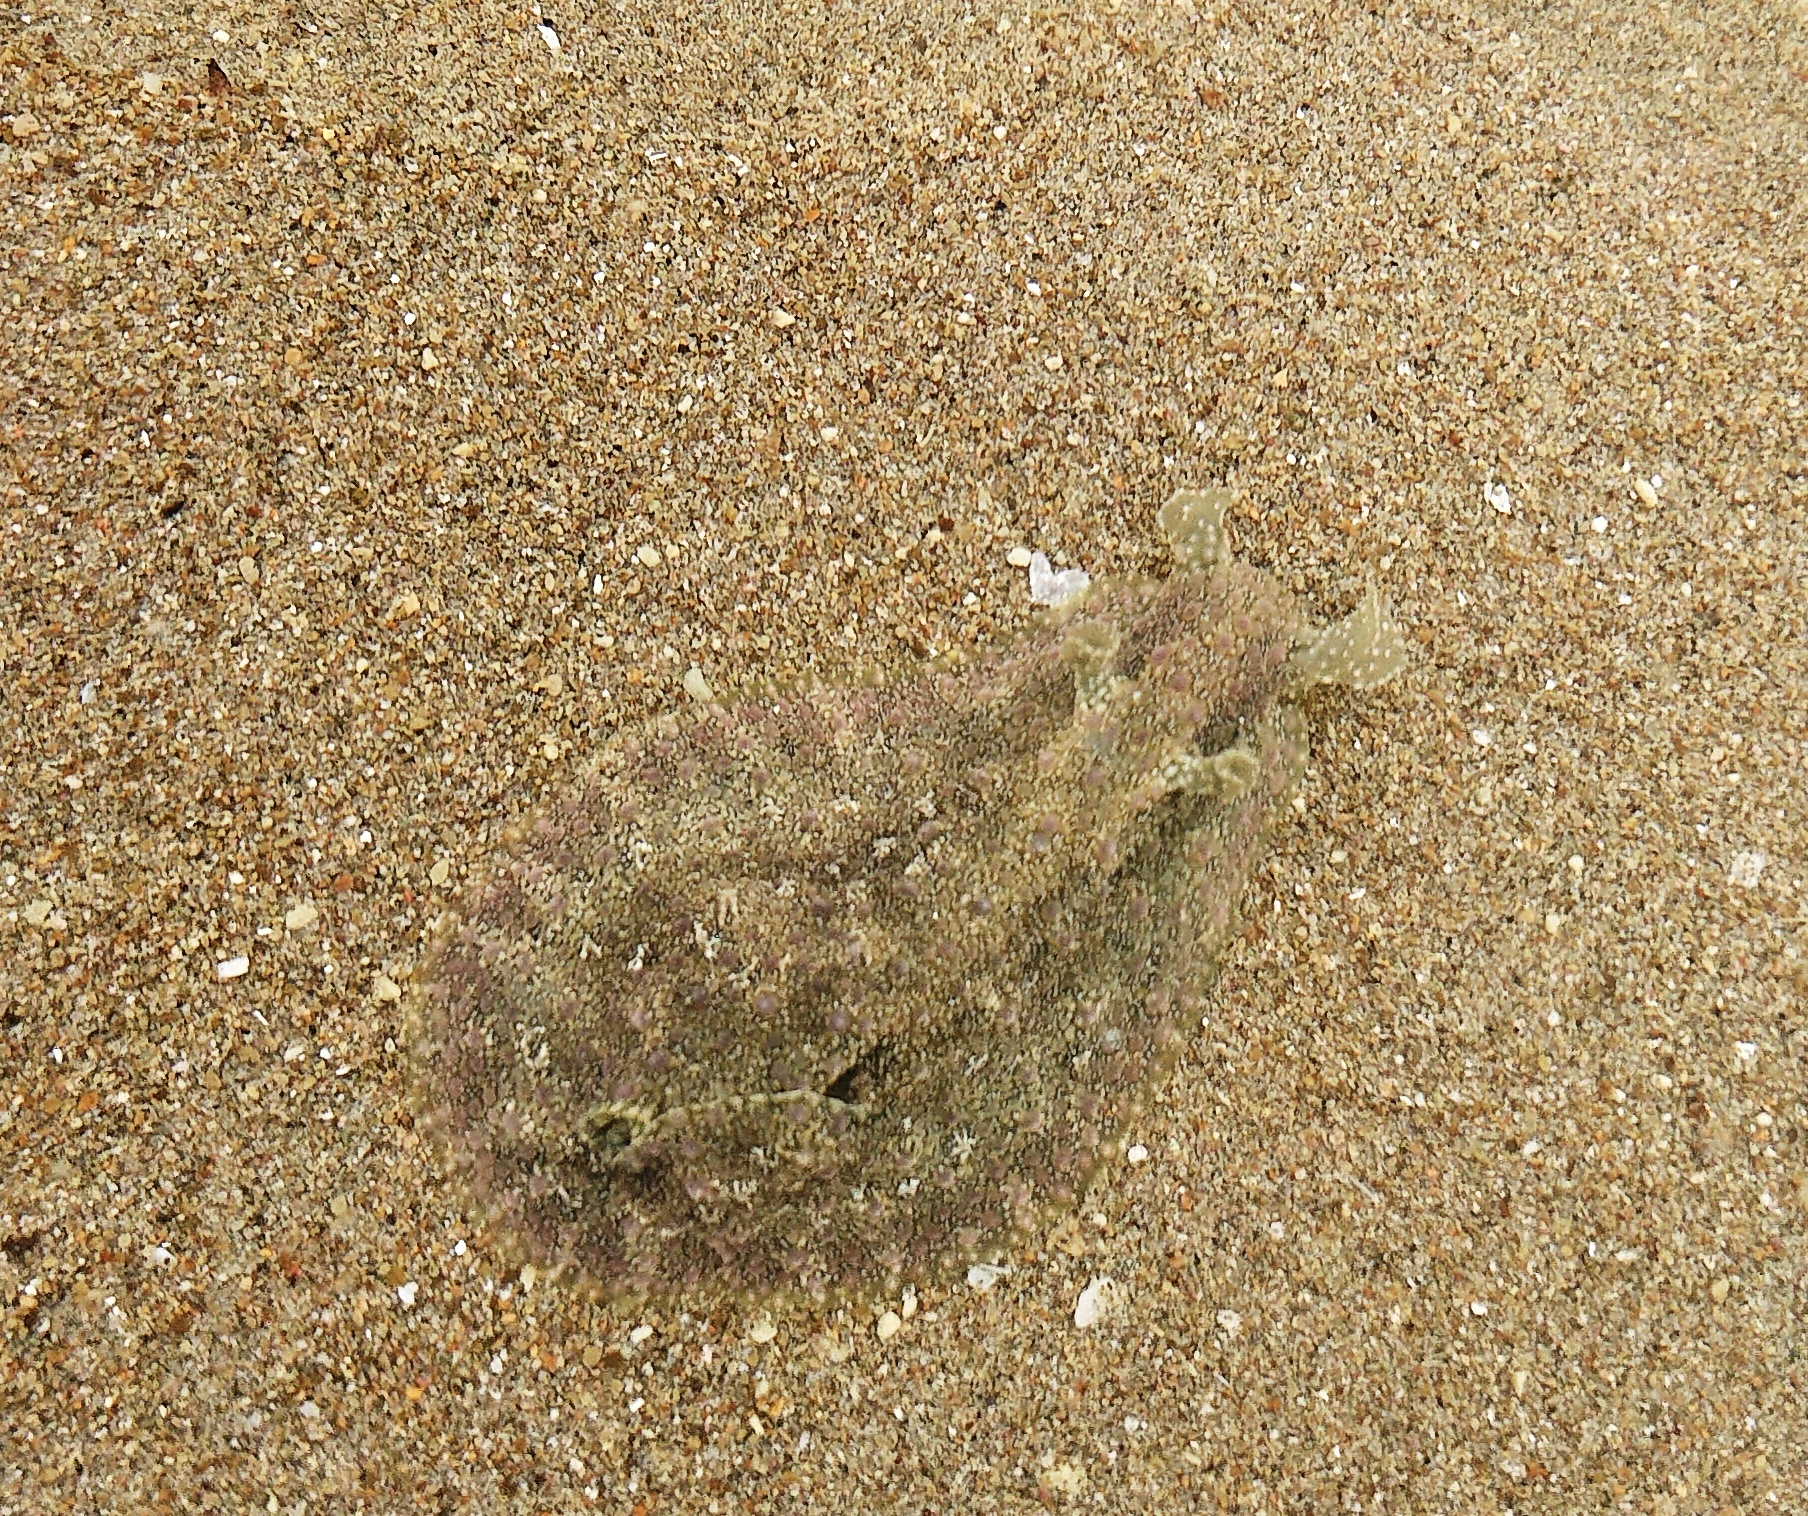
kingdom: Animalia
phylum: Mollusca
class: Gastropoda
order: Aplysiida
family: Aplysiidae
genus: Dolabrifera
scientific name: Dolabrifera nicaraguana
